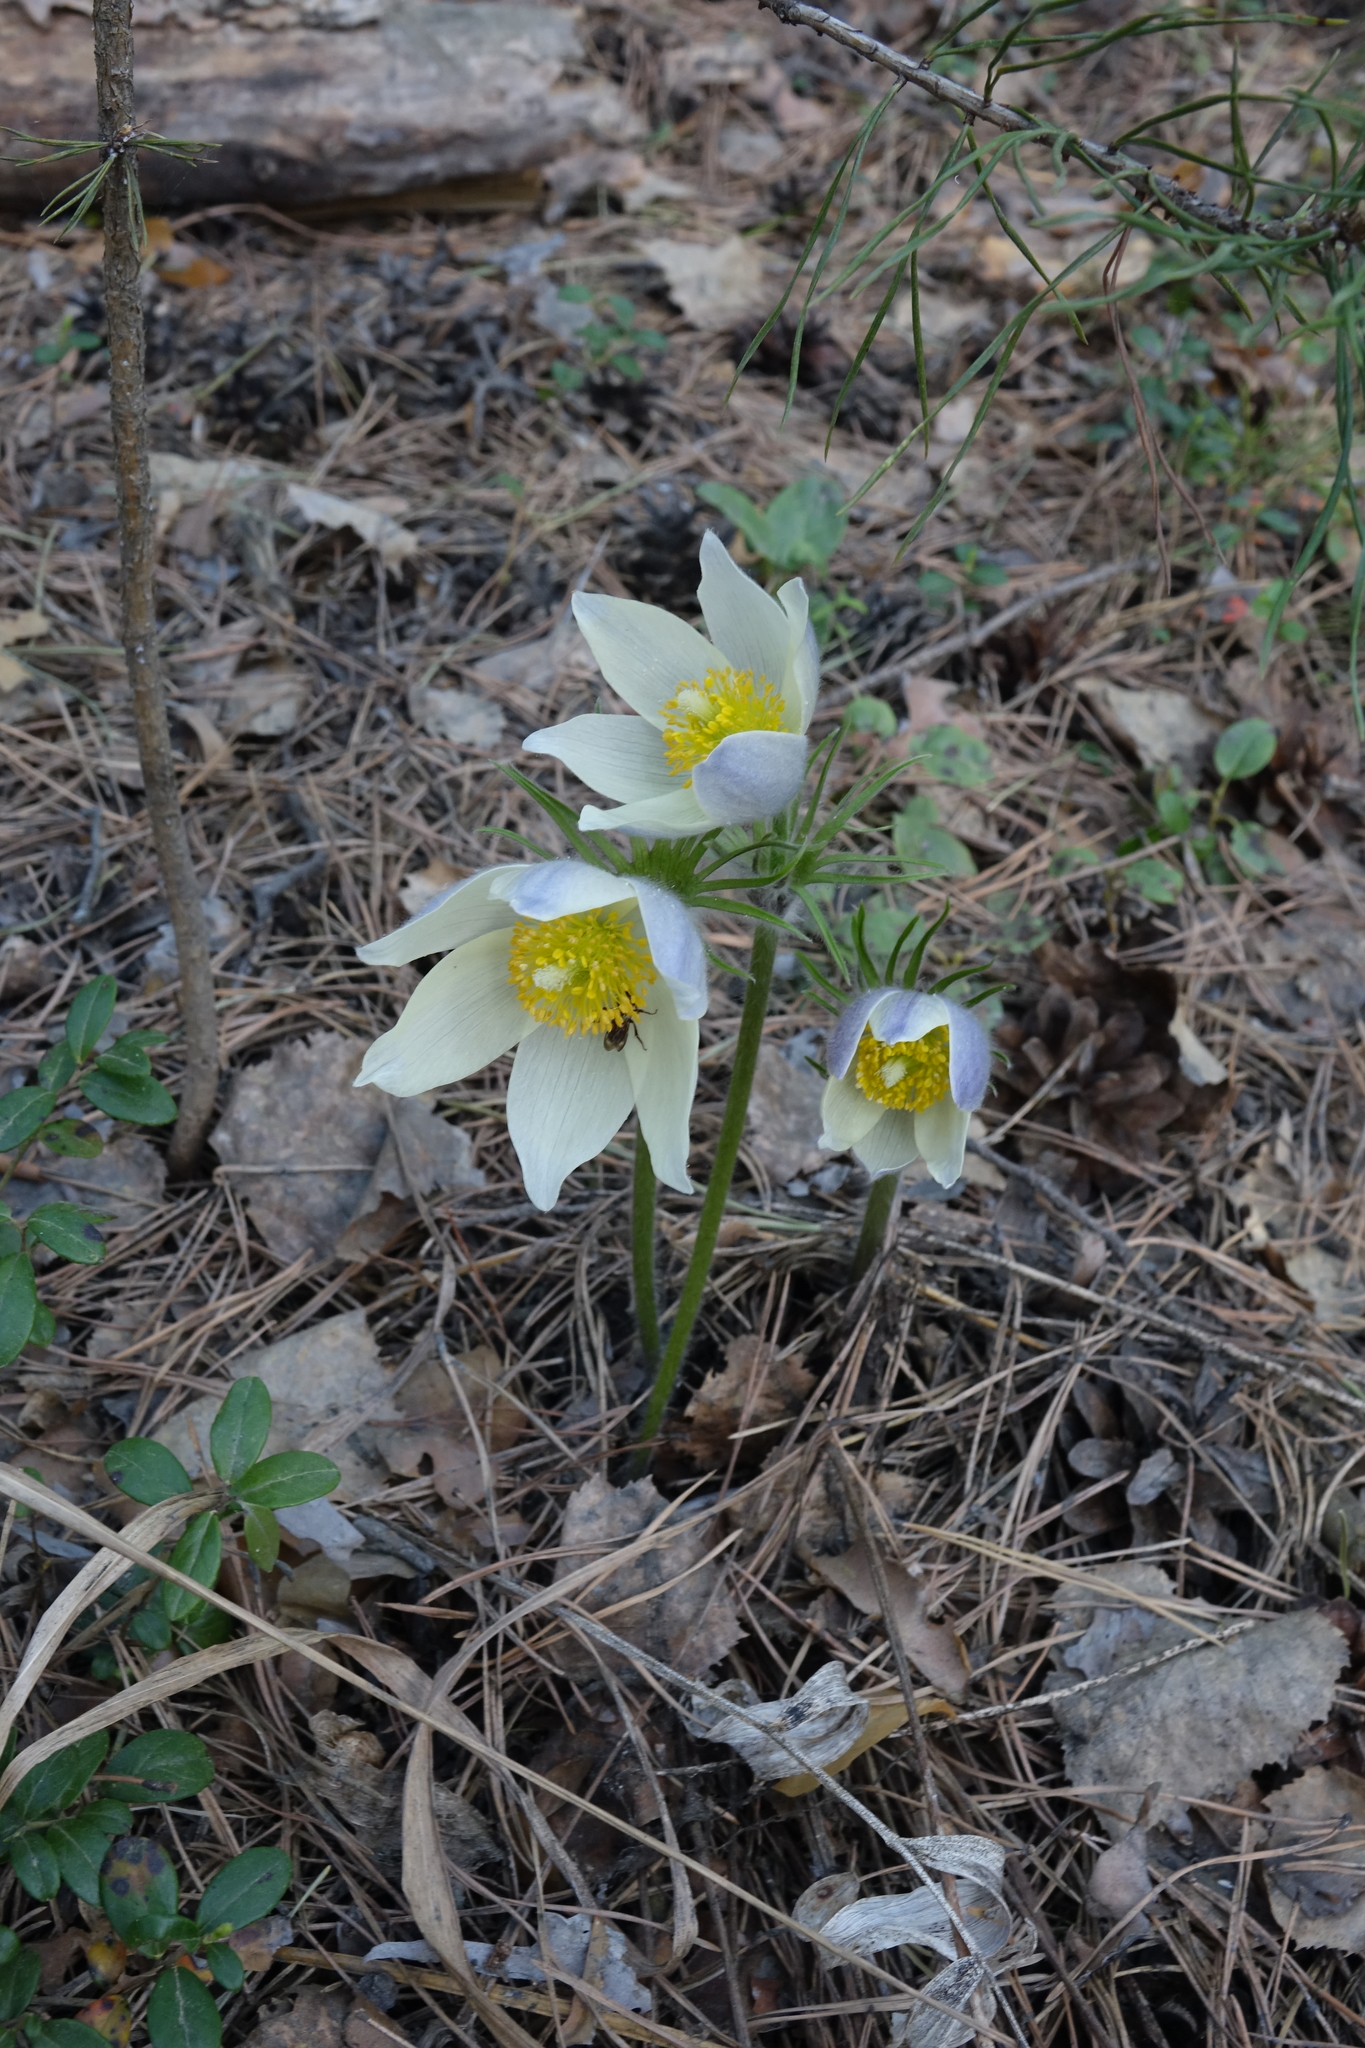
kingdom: Plantae
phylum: Tracheophyta
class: Magnoliopsida
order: Ranunculales
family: Ranunculaceae
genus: Pulsatilla
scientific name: Pulsatilla patens
